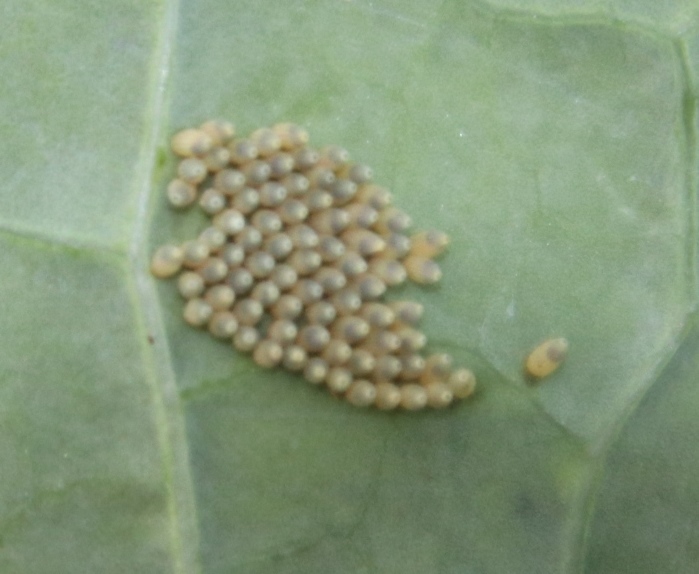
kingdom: Animalia
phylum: Arthropoda
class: Insecta
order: Lepidoptera
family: Pieridae
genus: Pieris
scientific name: Pieris brassicae
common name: Large white
